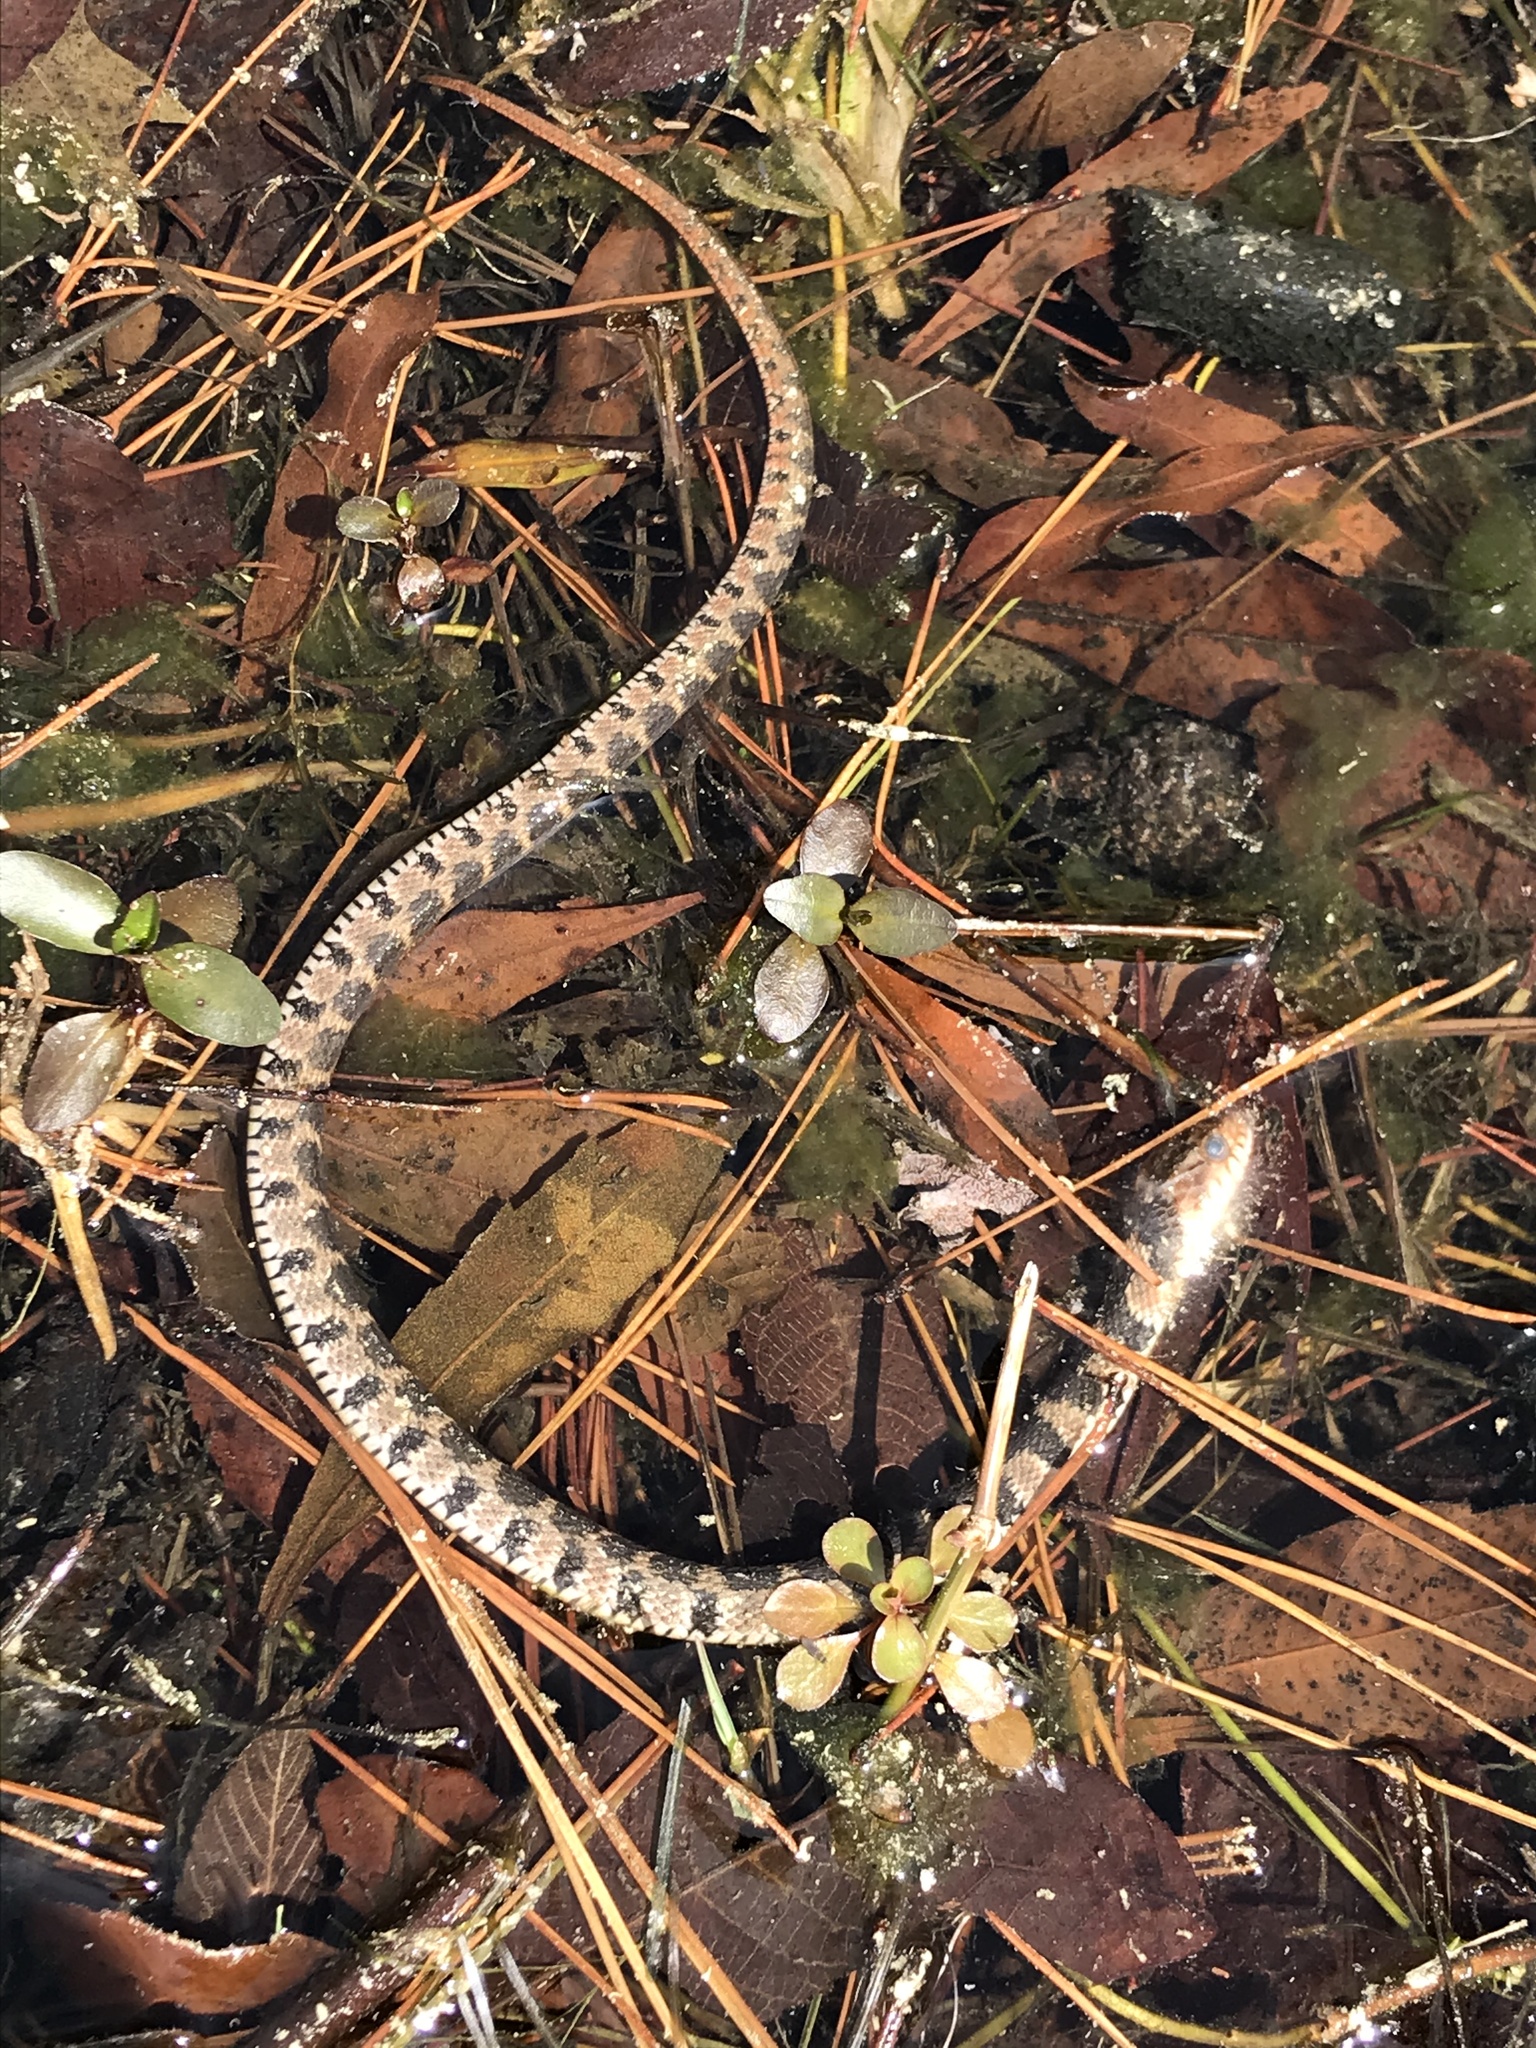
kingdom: Animalia
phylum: Chordata
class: Squamata
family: Colubridae
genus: Nerodia
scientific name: Nerodia erythrogaster
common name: Plainbelly water snake
